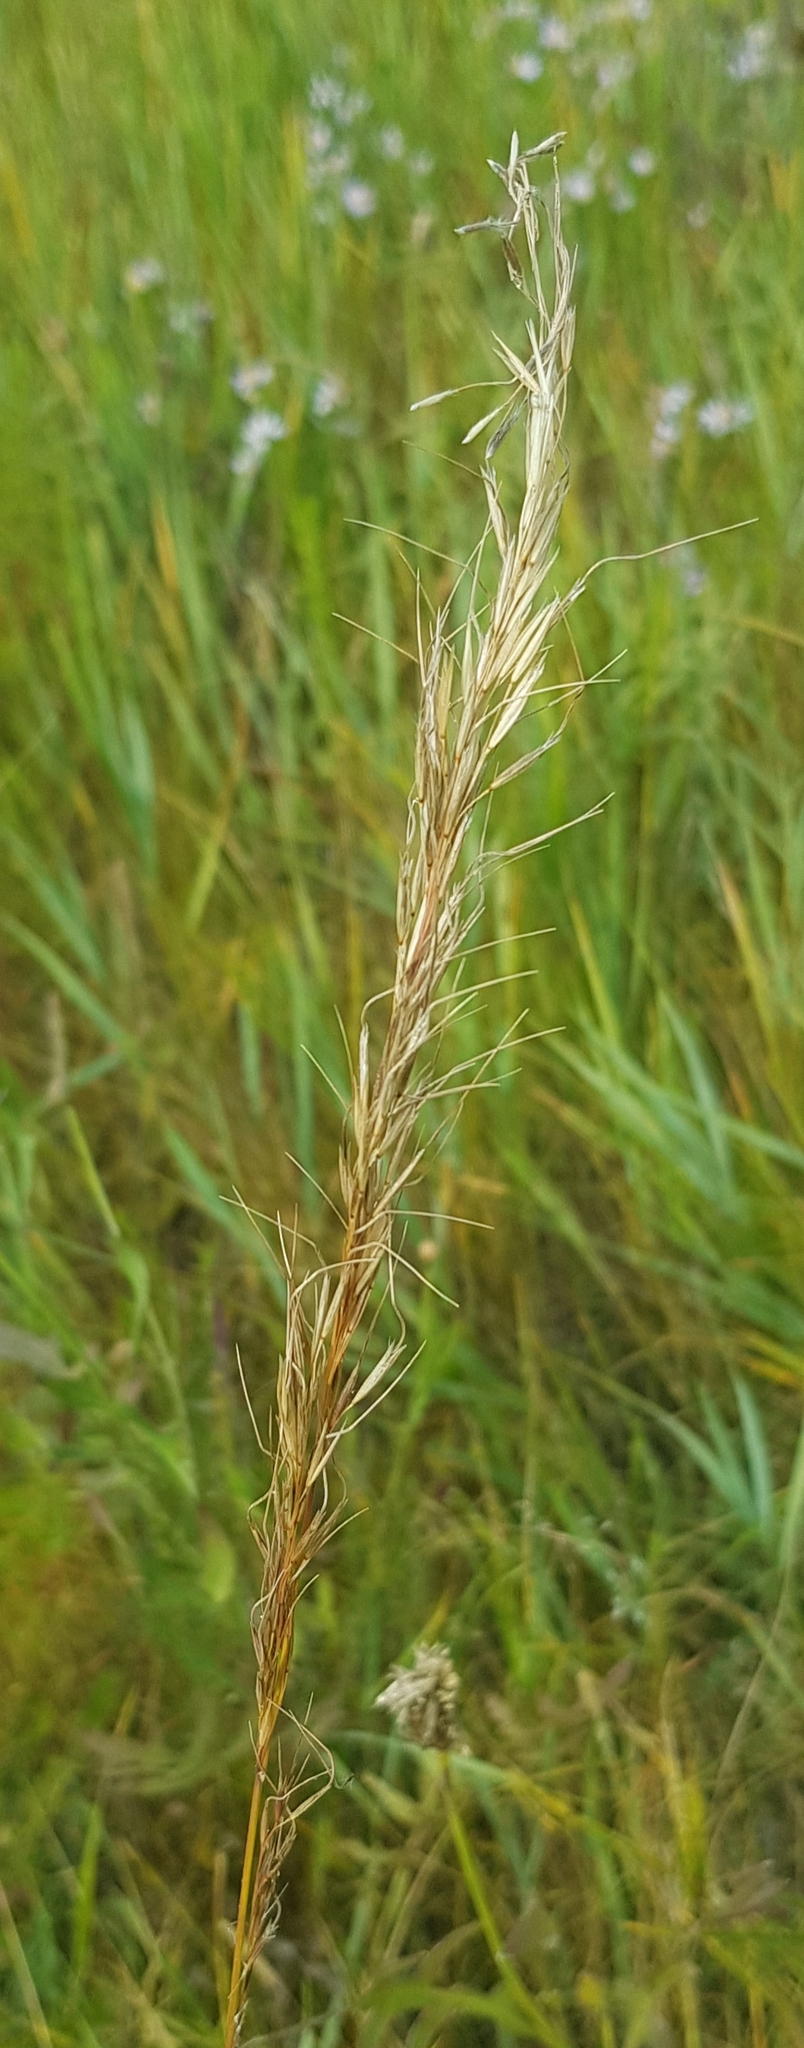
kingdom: Plantae
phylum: Tracheophyta
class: Liliopsida
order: Poales
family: Poaceae
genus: Achnatherum
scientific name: Achnatherum sibiricum
